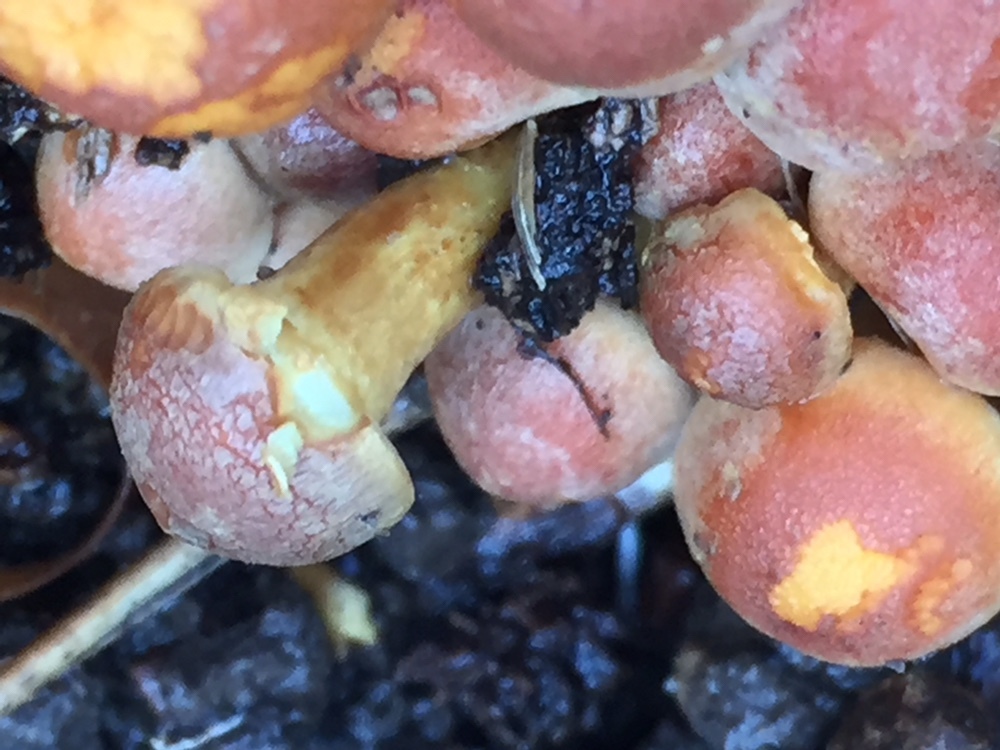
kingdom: Fungi
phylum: Basidiomycota
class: Agaricomycetes
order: Agaricales
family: Strophariaceae
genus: Hypholoma
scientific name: Hypholoma fasciculare
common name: Sulphur tuft
